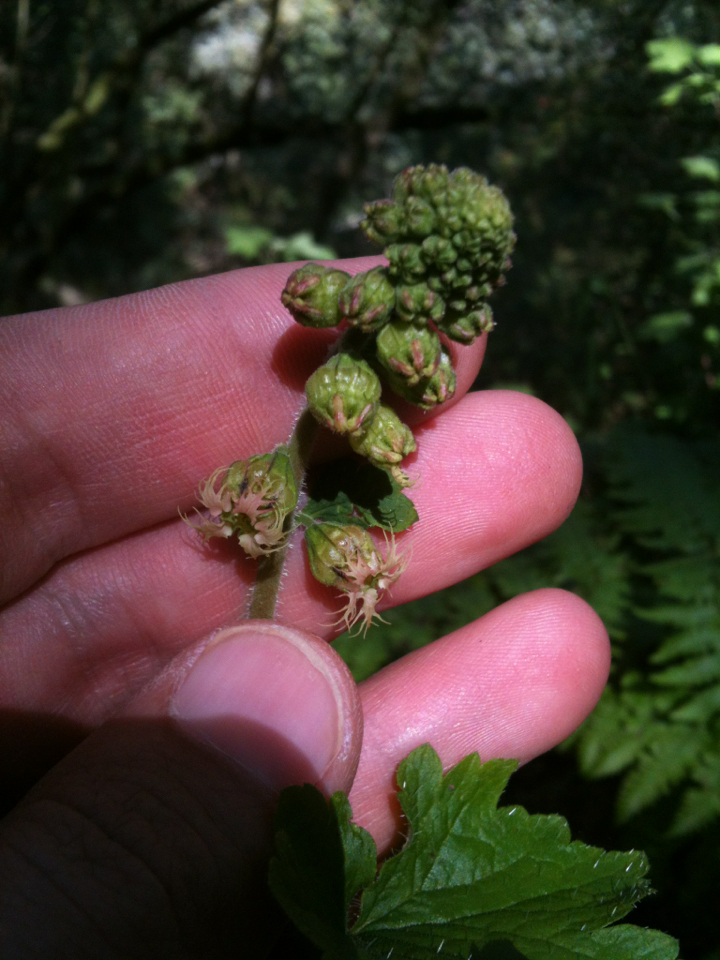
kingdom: Plantae
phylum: Tracheophyta
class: Magnoliopsida
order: Saxifragales
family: Saxifragaceae
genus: Tellima
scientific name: Tellima grandiflora
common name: Fringecups
